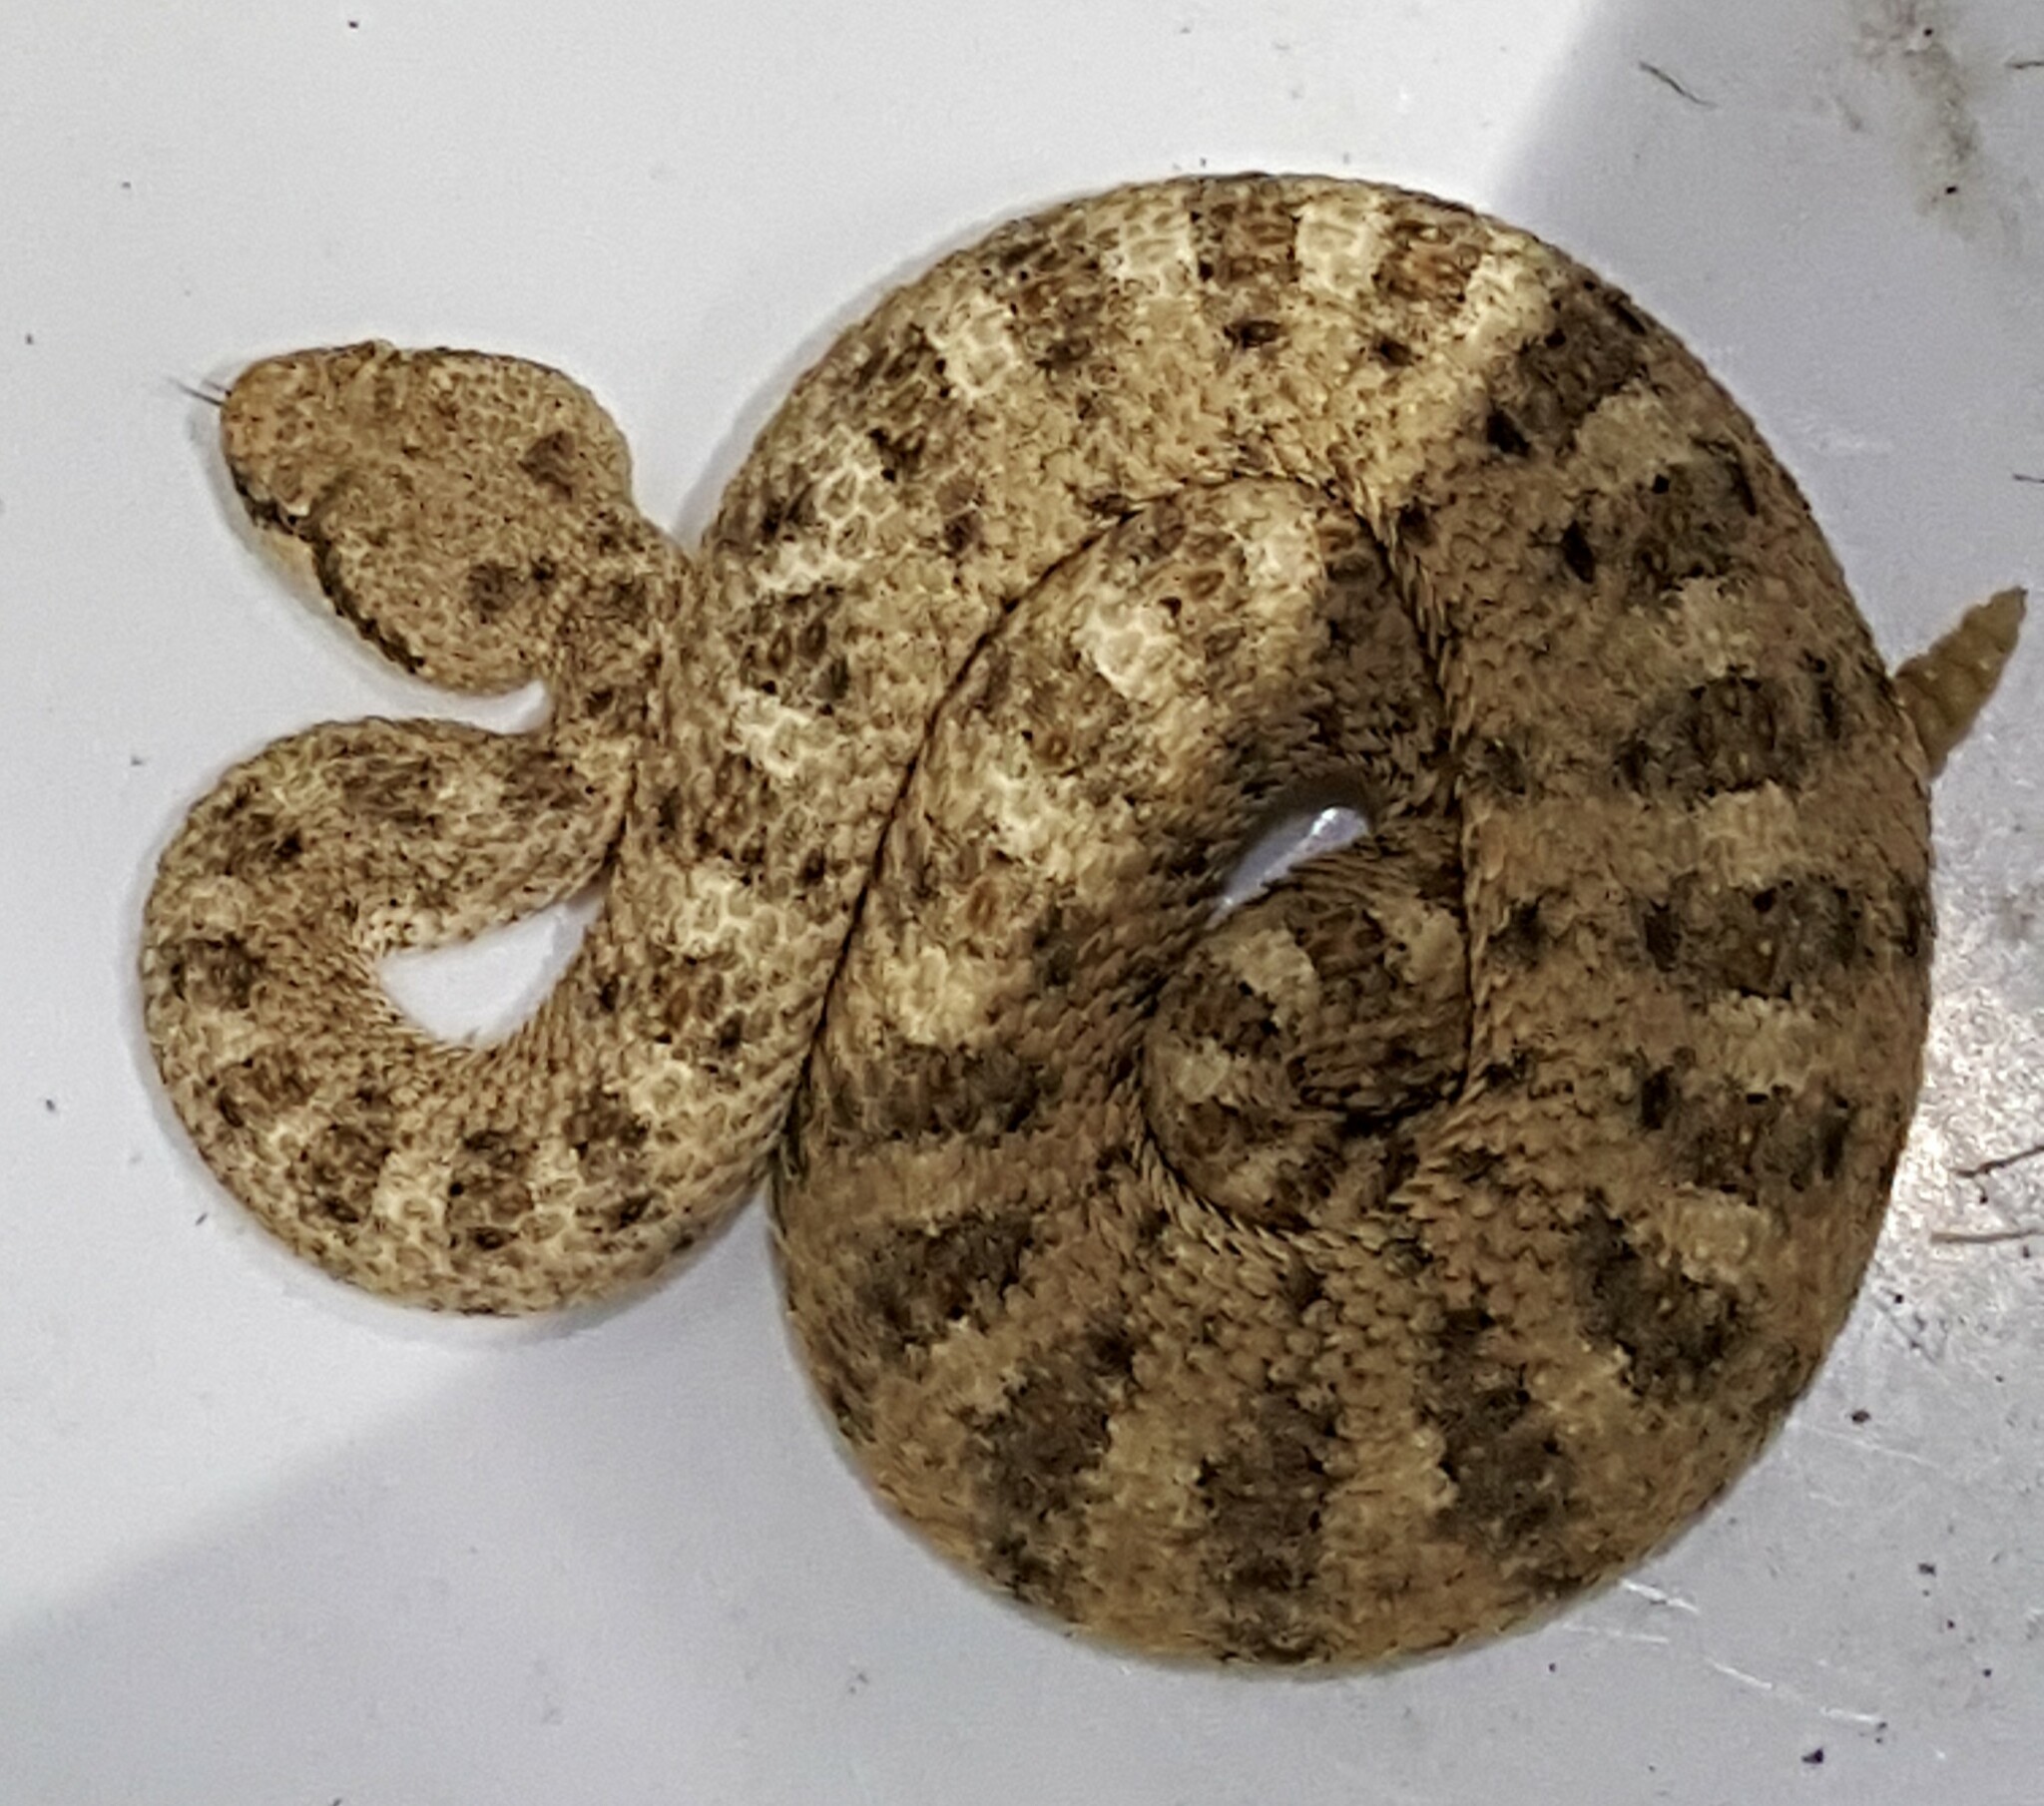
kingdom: Animalia
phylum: Chordata
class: Squamata
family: Viperidae
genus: Crotalus
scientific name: Crotalus cerastes
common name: Sidewinder
